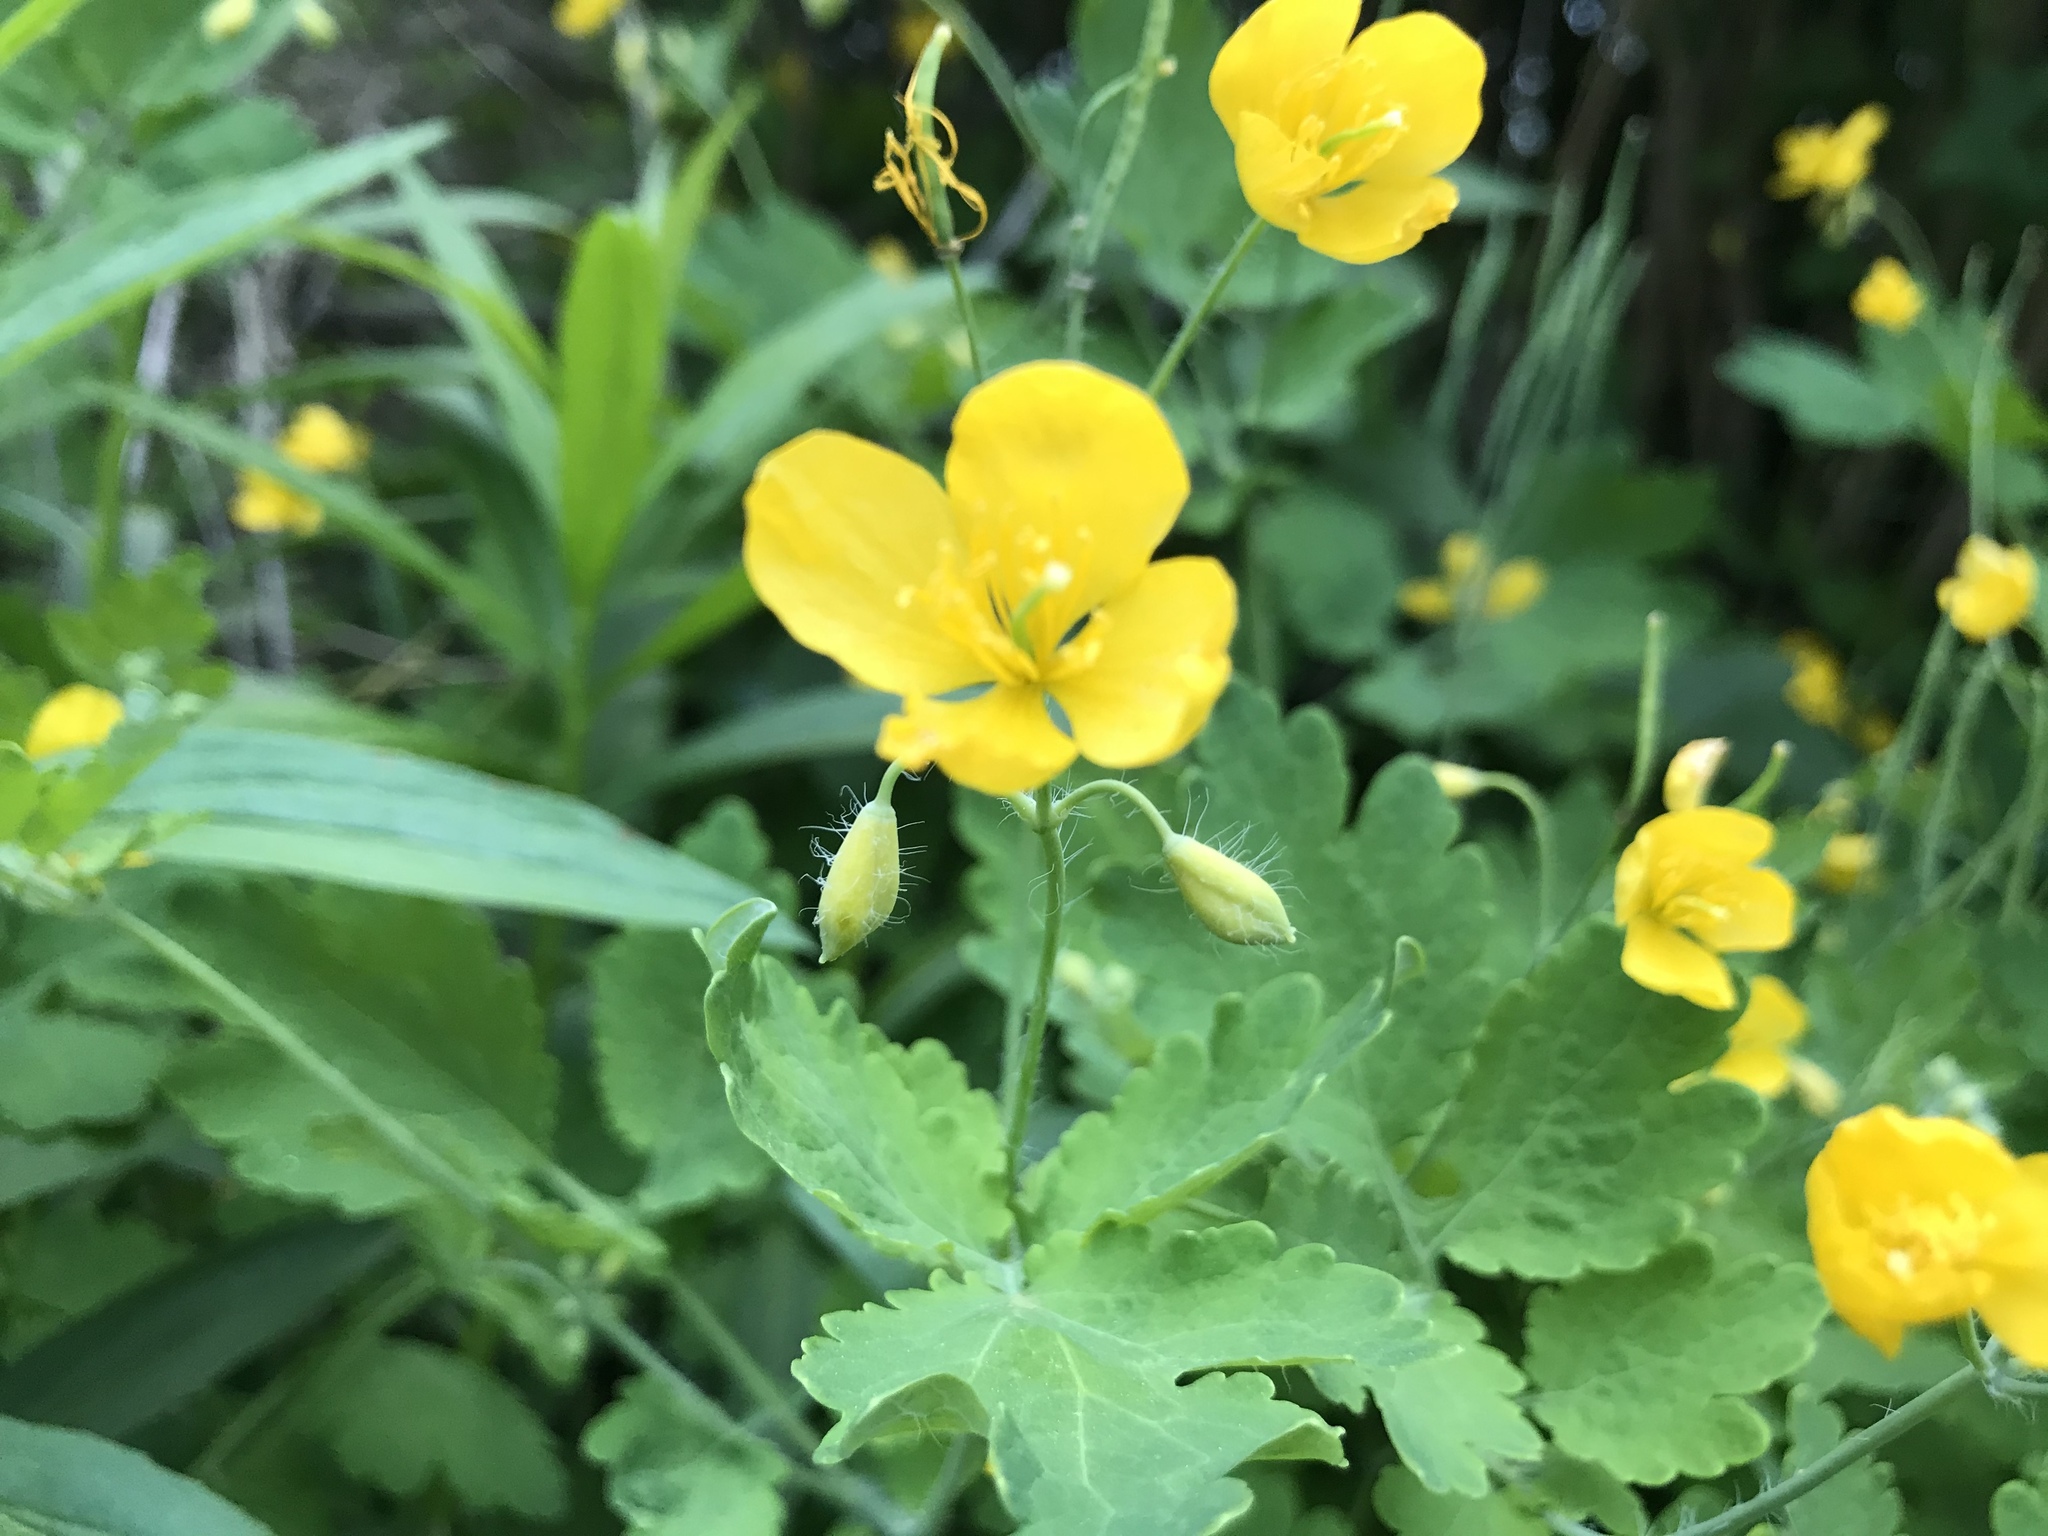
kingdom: Plantae
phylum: Tracheophyta
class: Magnoliopsida
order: Ranunculales
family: Papaveraceae
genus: Chelidonium
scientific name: Chelidonium majus
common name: Greater celandine
